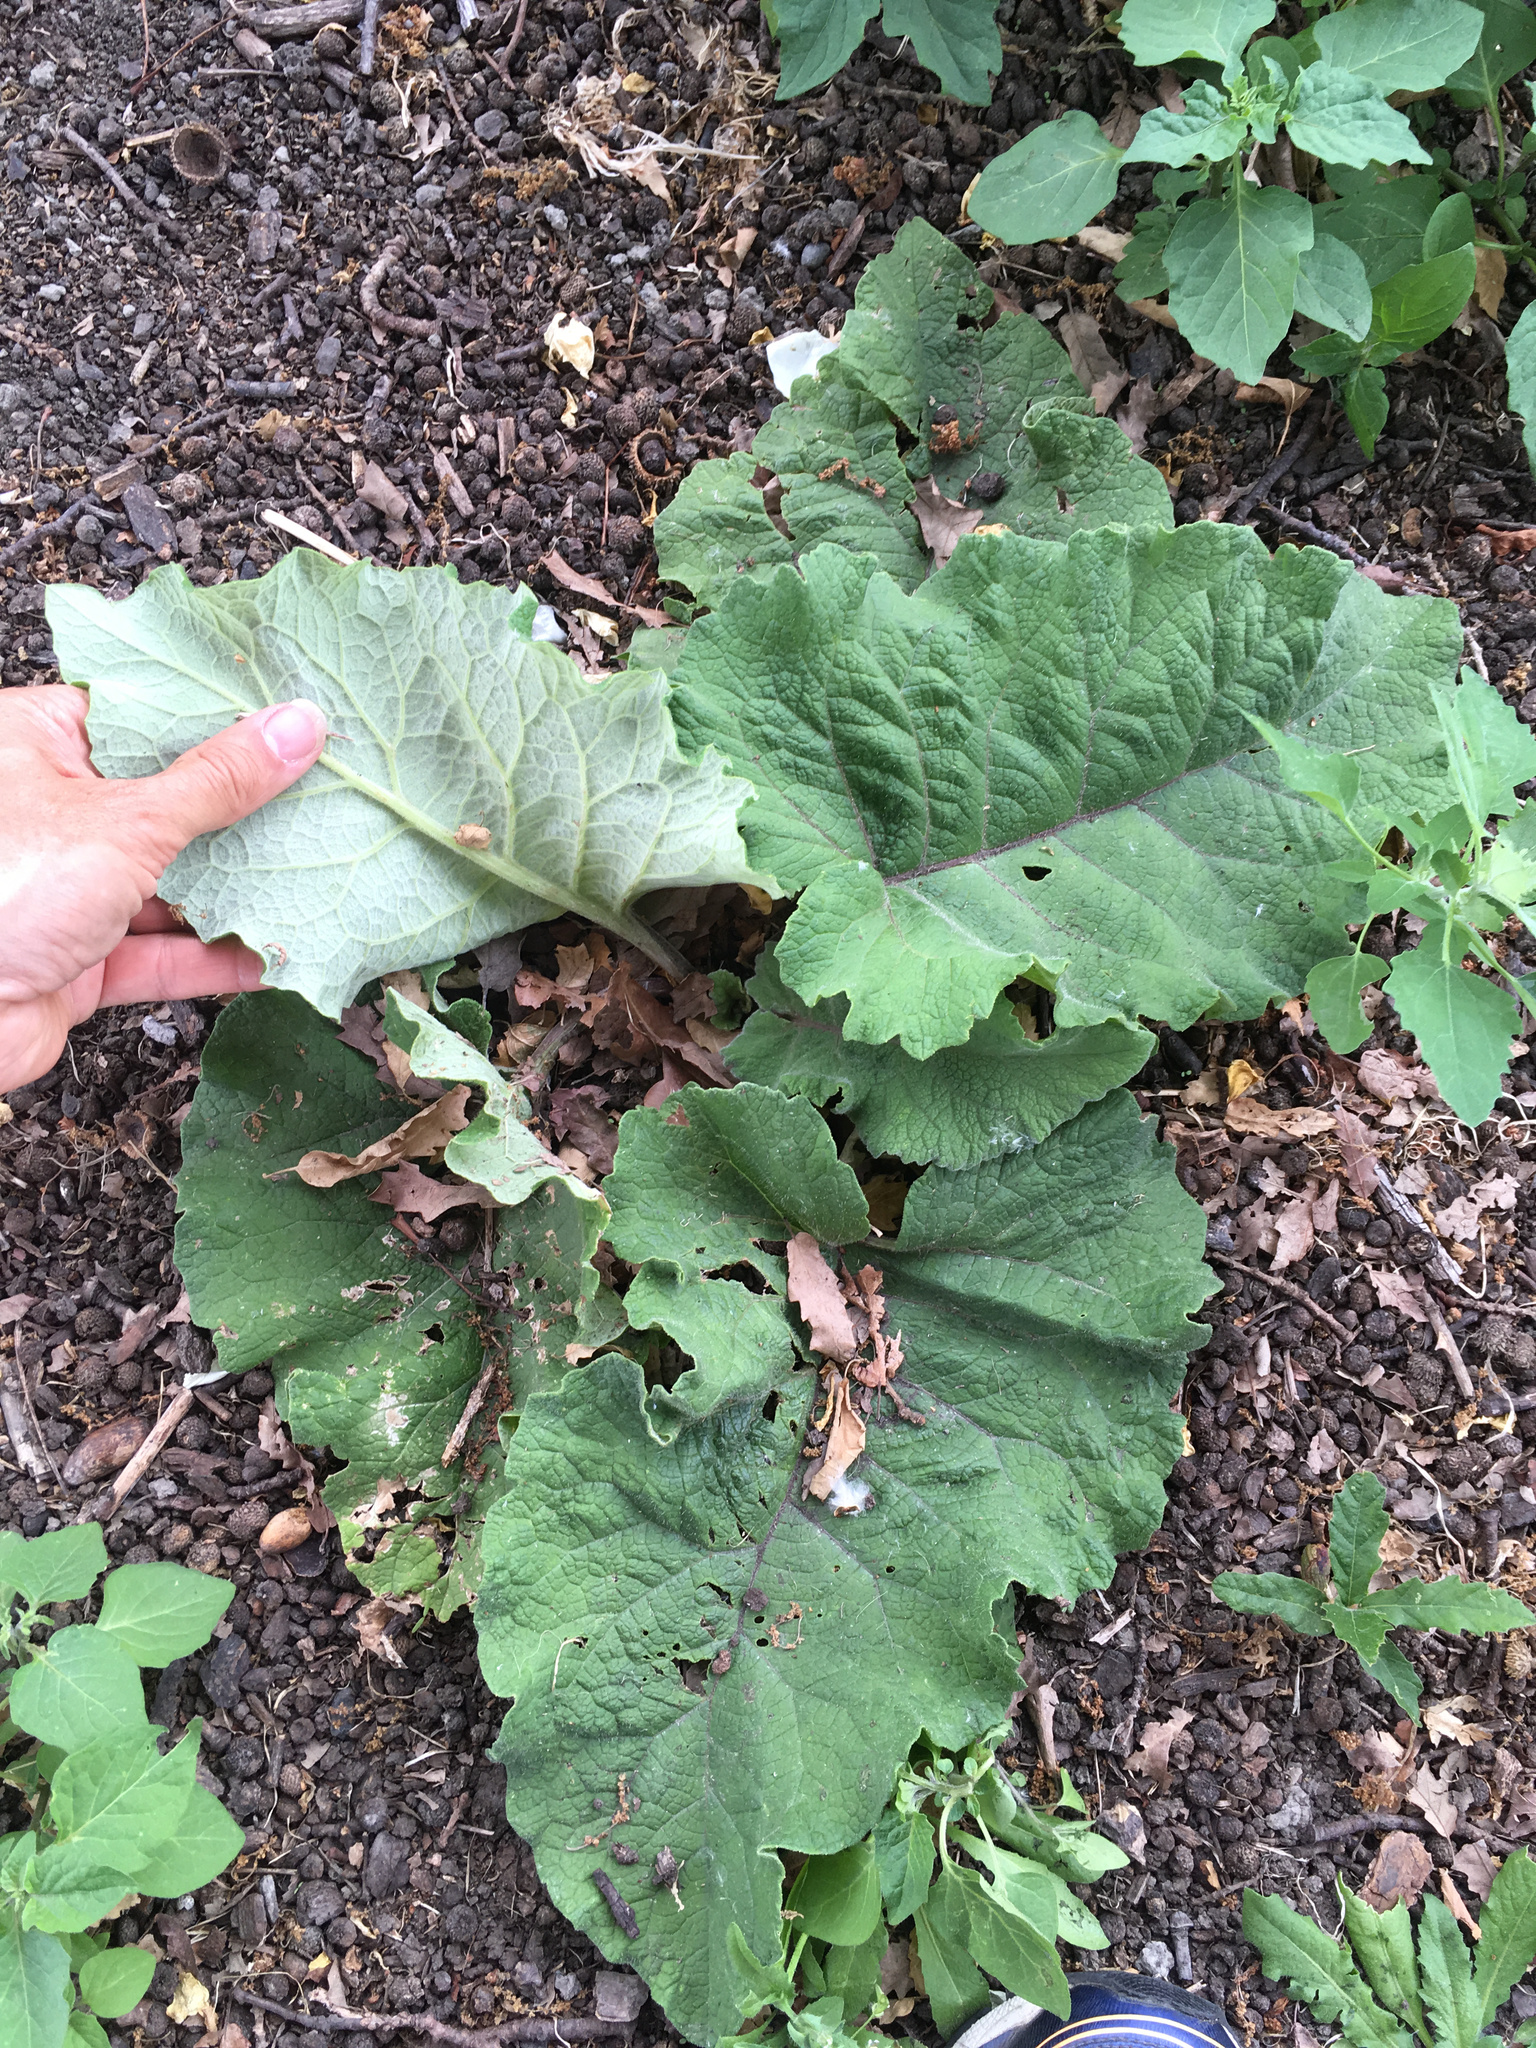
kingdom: Plantae
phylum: Tracheophyta
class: Magnoliopsida
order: Asterales
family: Asteraceae
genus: Arctium
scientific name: Arctium minus
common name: Lesser burdock
